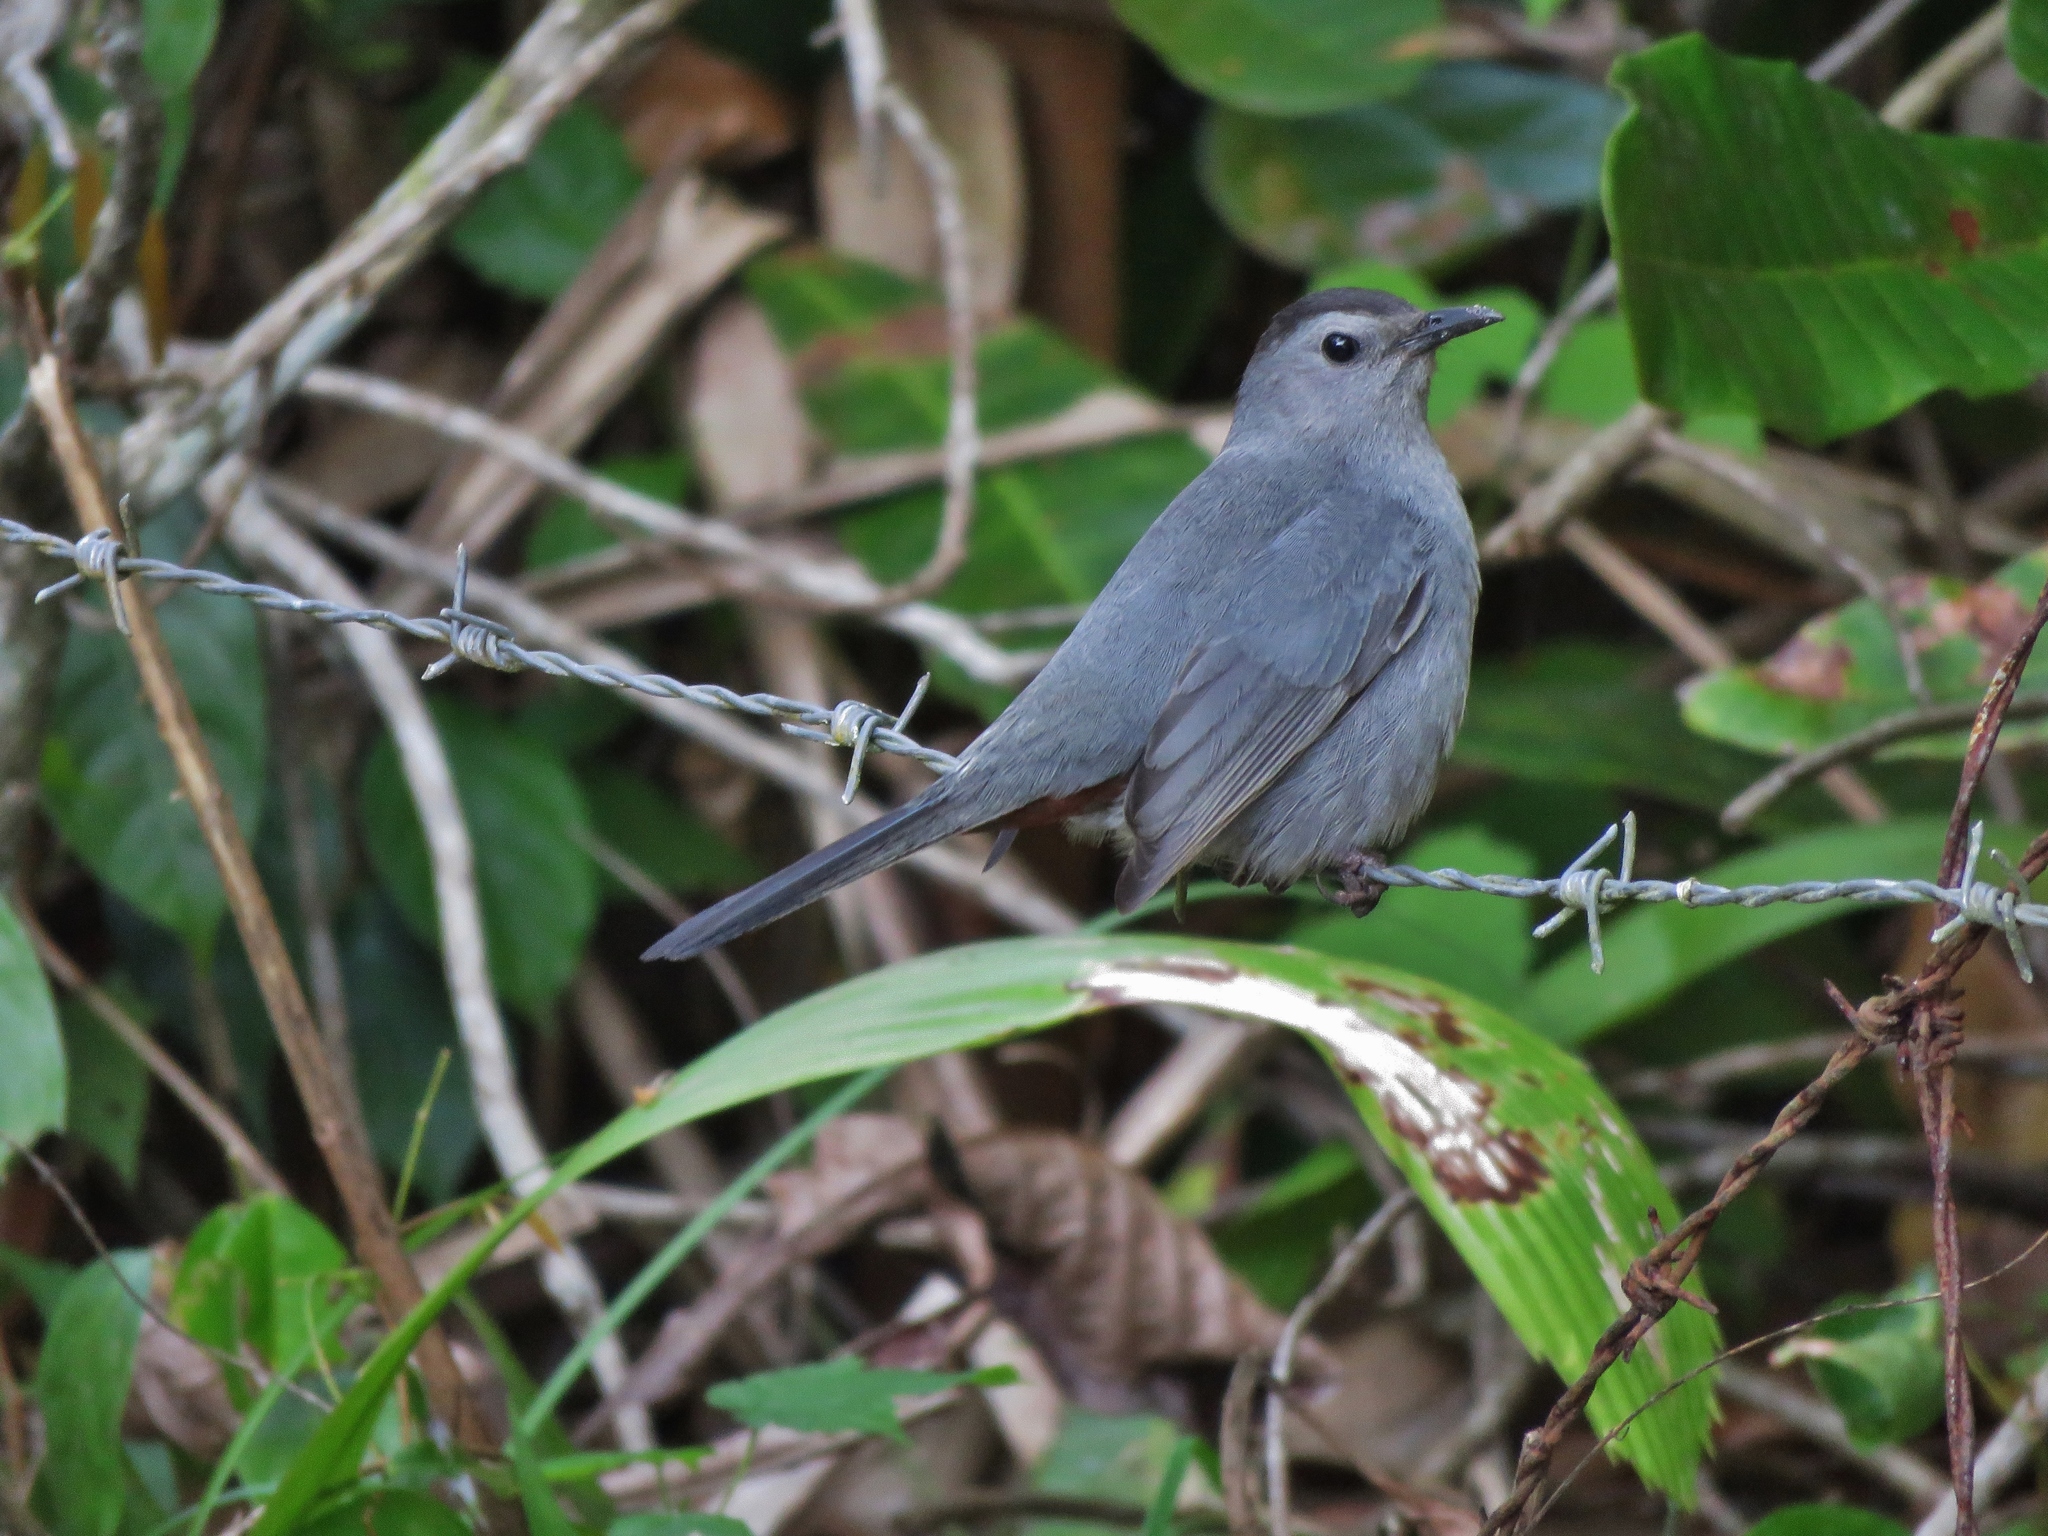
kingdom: Animalia
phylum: Chordata
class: Aves
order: Passeriformes
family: Mimidae
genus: Dumetella
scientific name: Dumetella carolinensis
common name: Gray catbird
